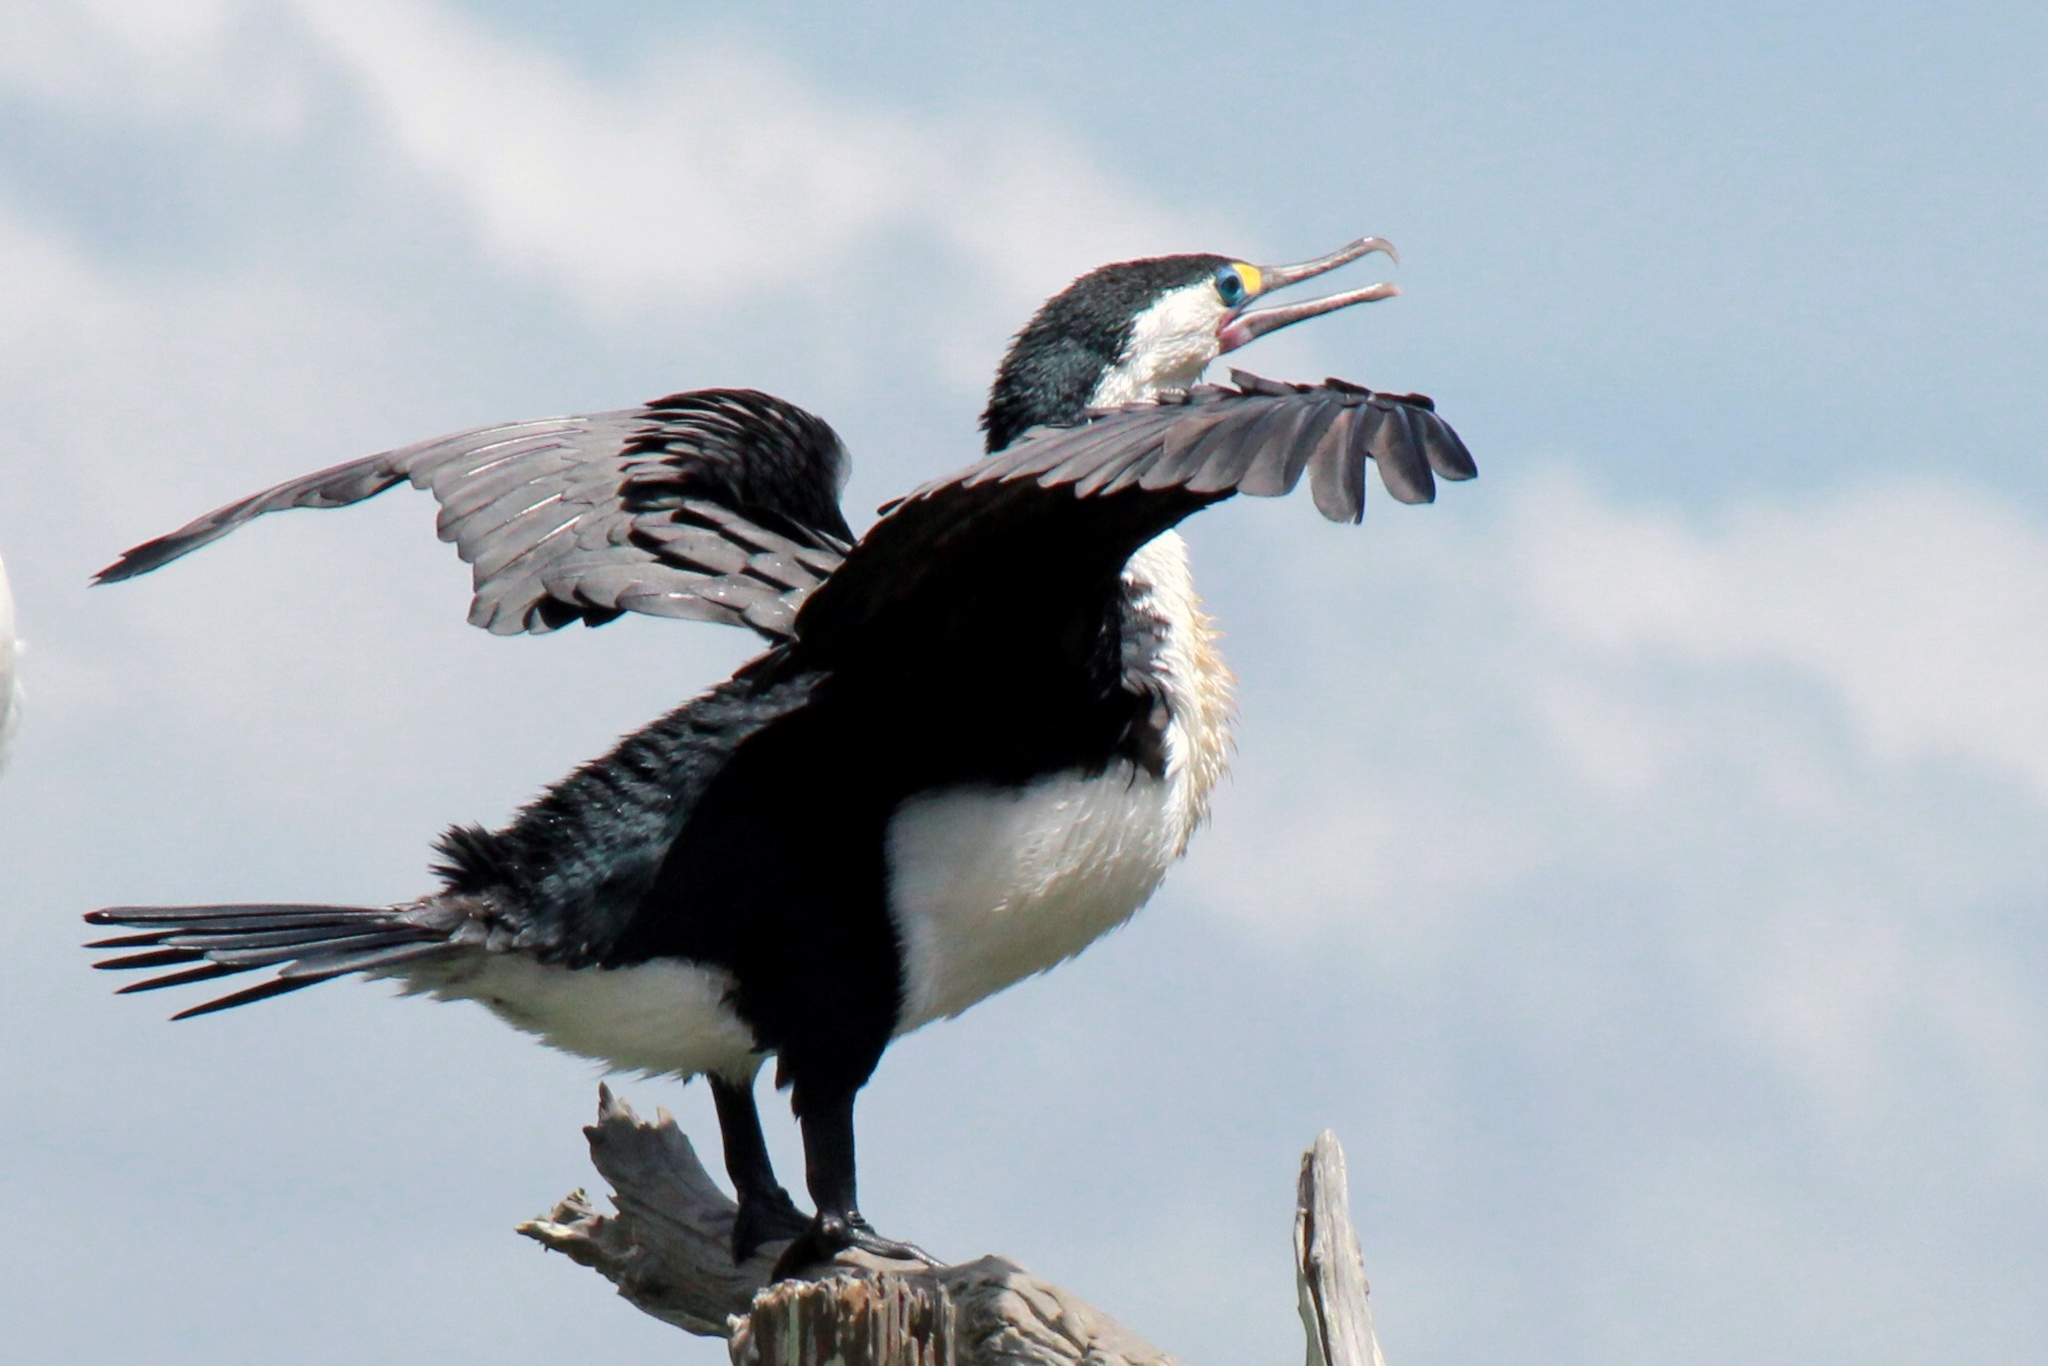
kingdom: Animalia
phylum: Chordata
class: Aves
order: Suliformes
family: Phalacrocoracidae
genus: Phalacrocorax
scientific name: Phalacrocorax varius
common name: Pied cormorant
